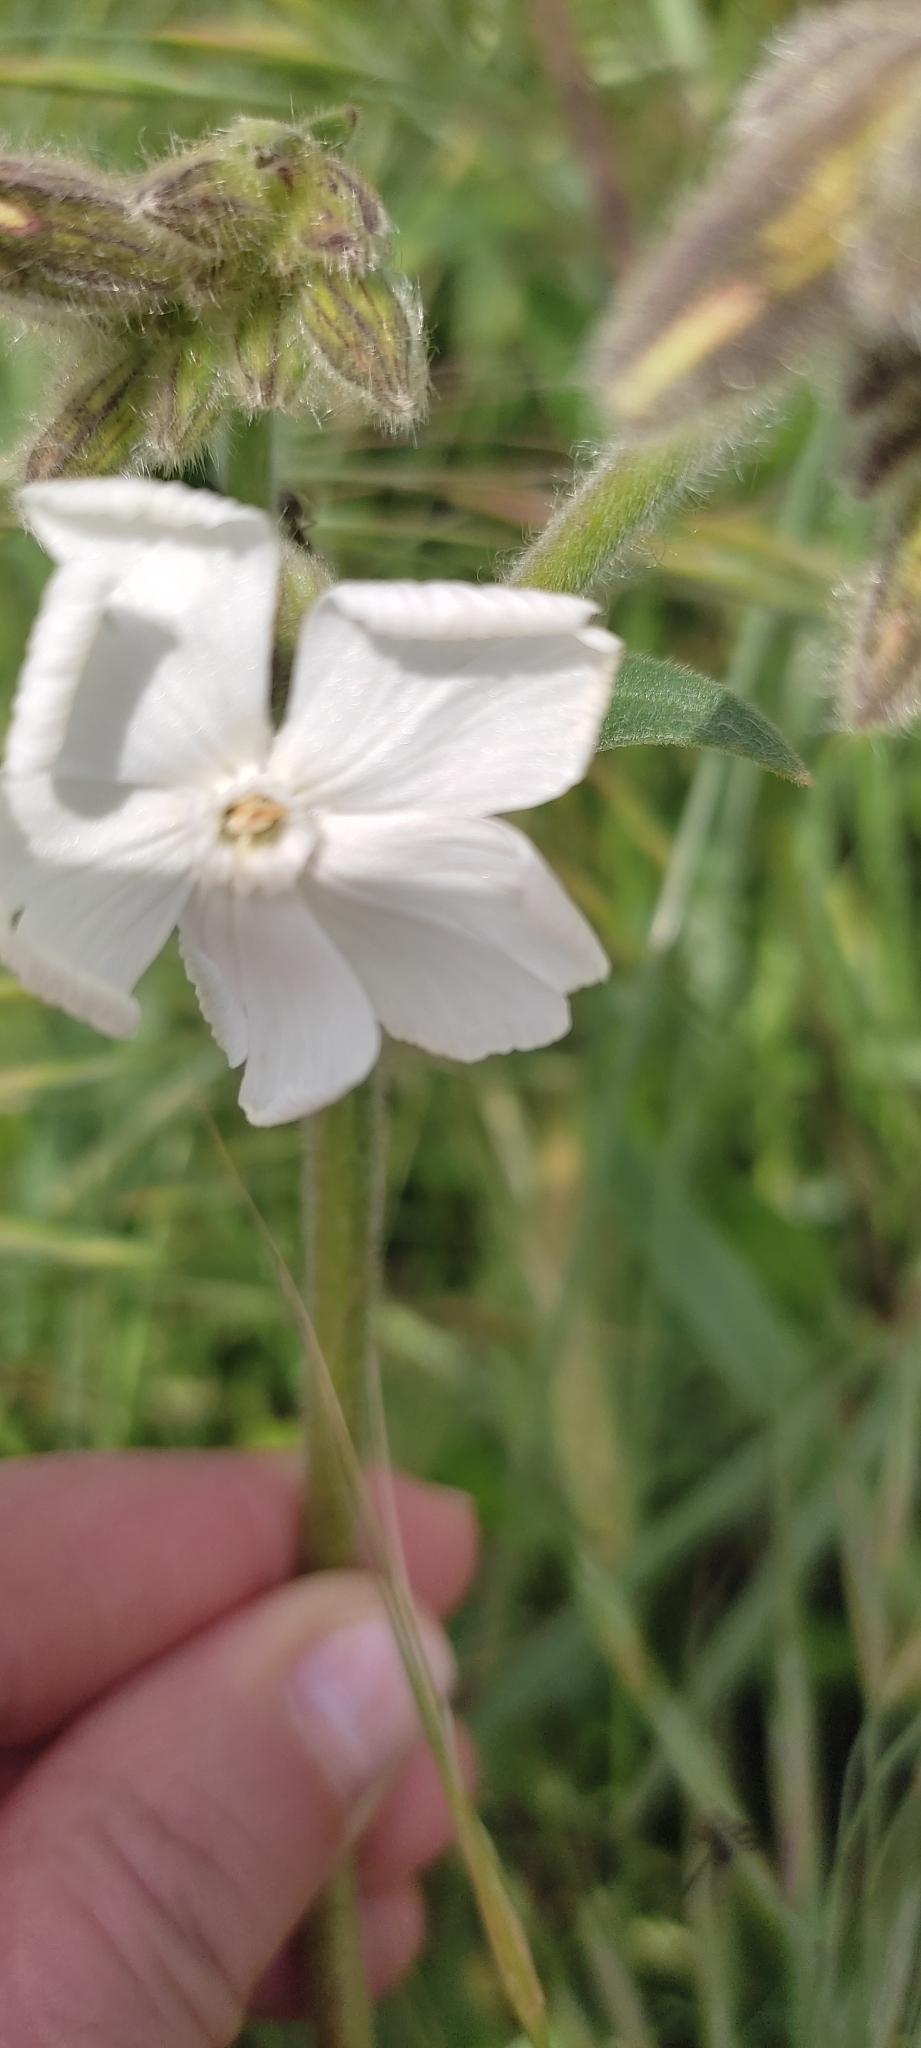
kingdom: Plantae
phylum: Tracheophyta
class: Magnoliopsida
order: Caryophyllales
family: Caryophyllaceae
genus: Silene
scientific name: Silene latifolia
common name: White campion
